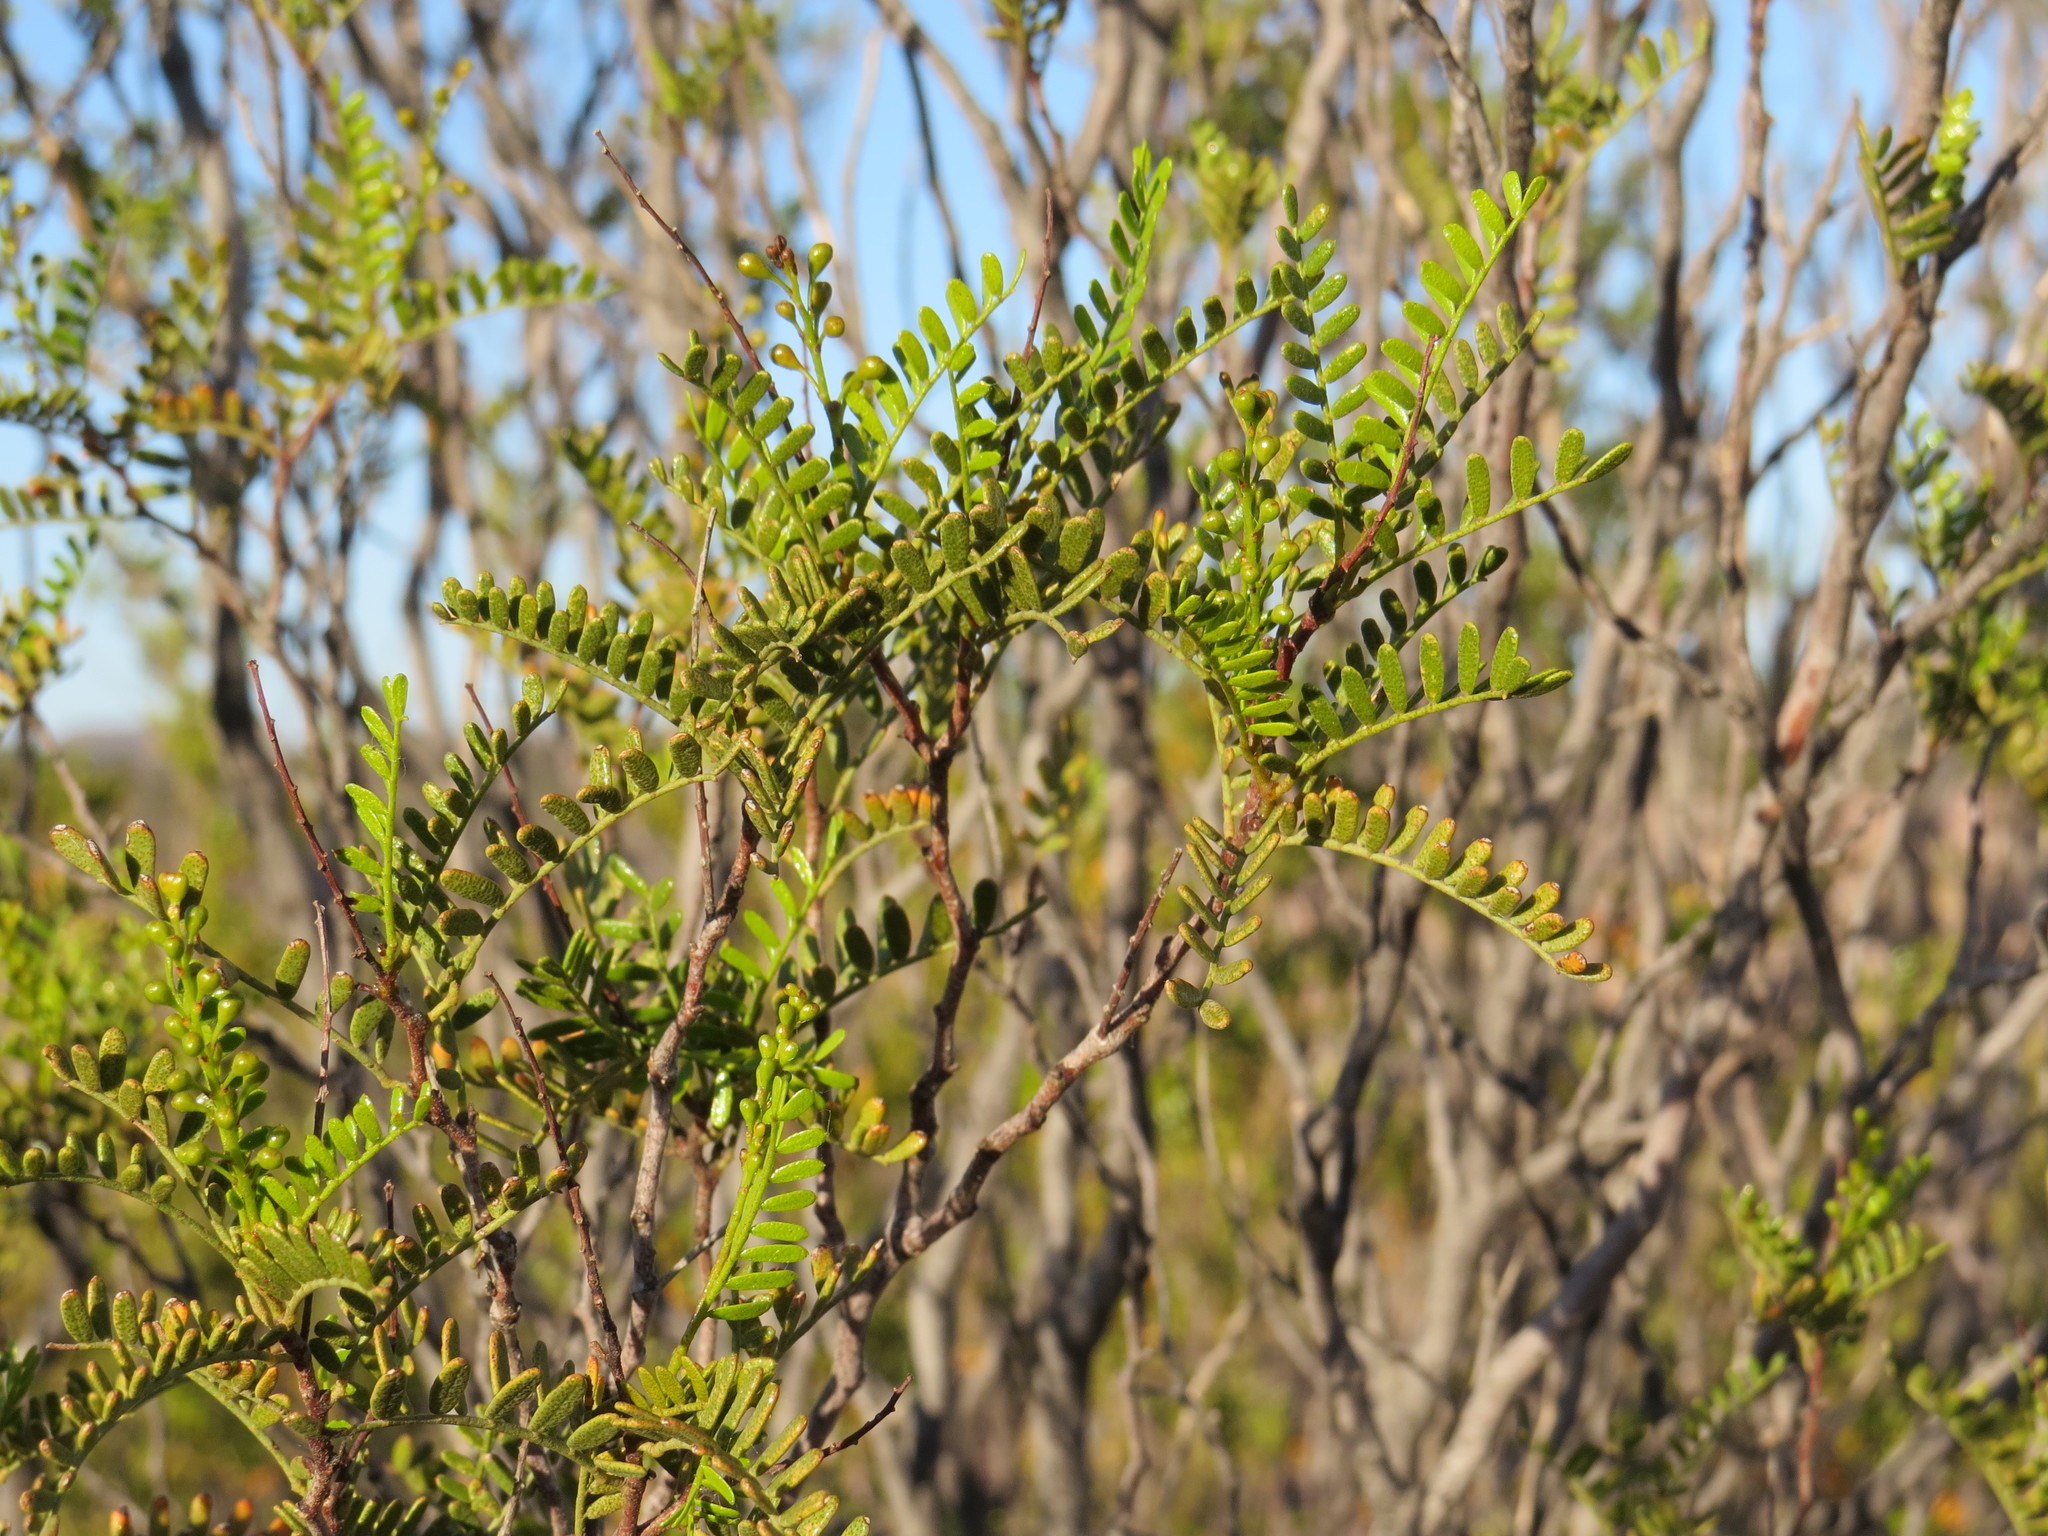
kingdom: Plantae
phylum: Tracheophyta
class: Magnoliopsida
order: Fabales
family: Fabaceae
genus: Zuccagnia
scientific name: Zuccagnia punctata
